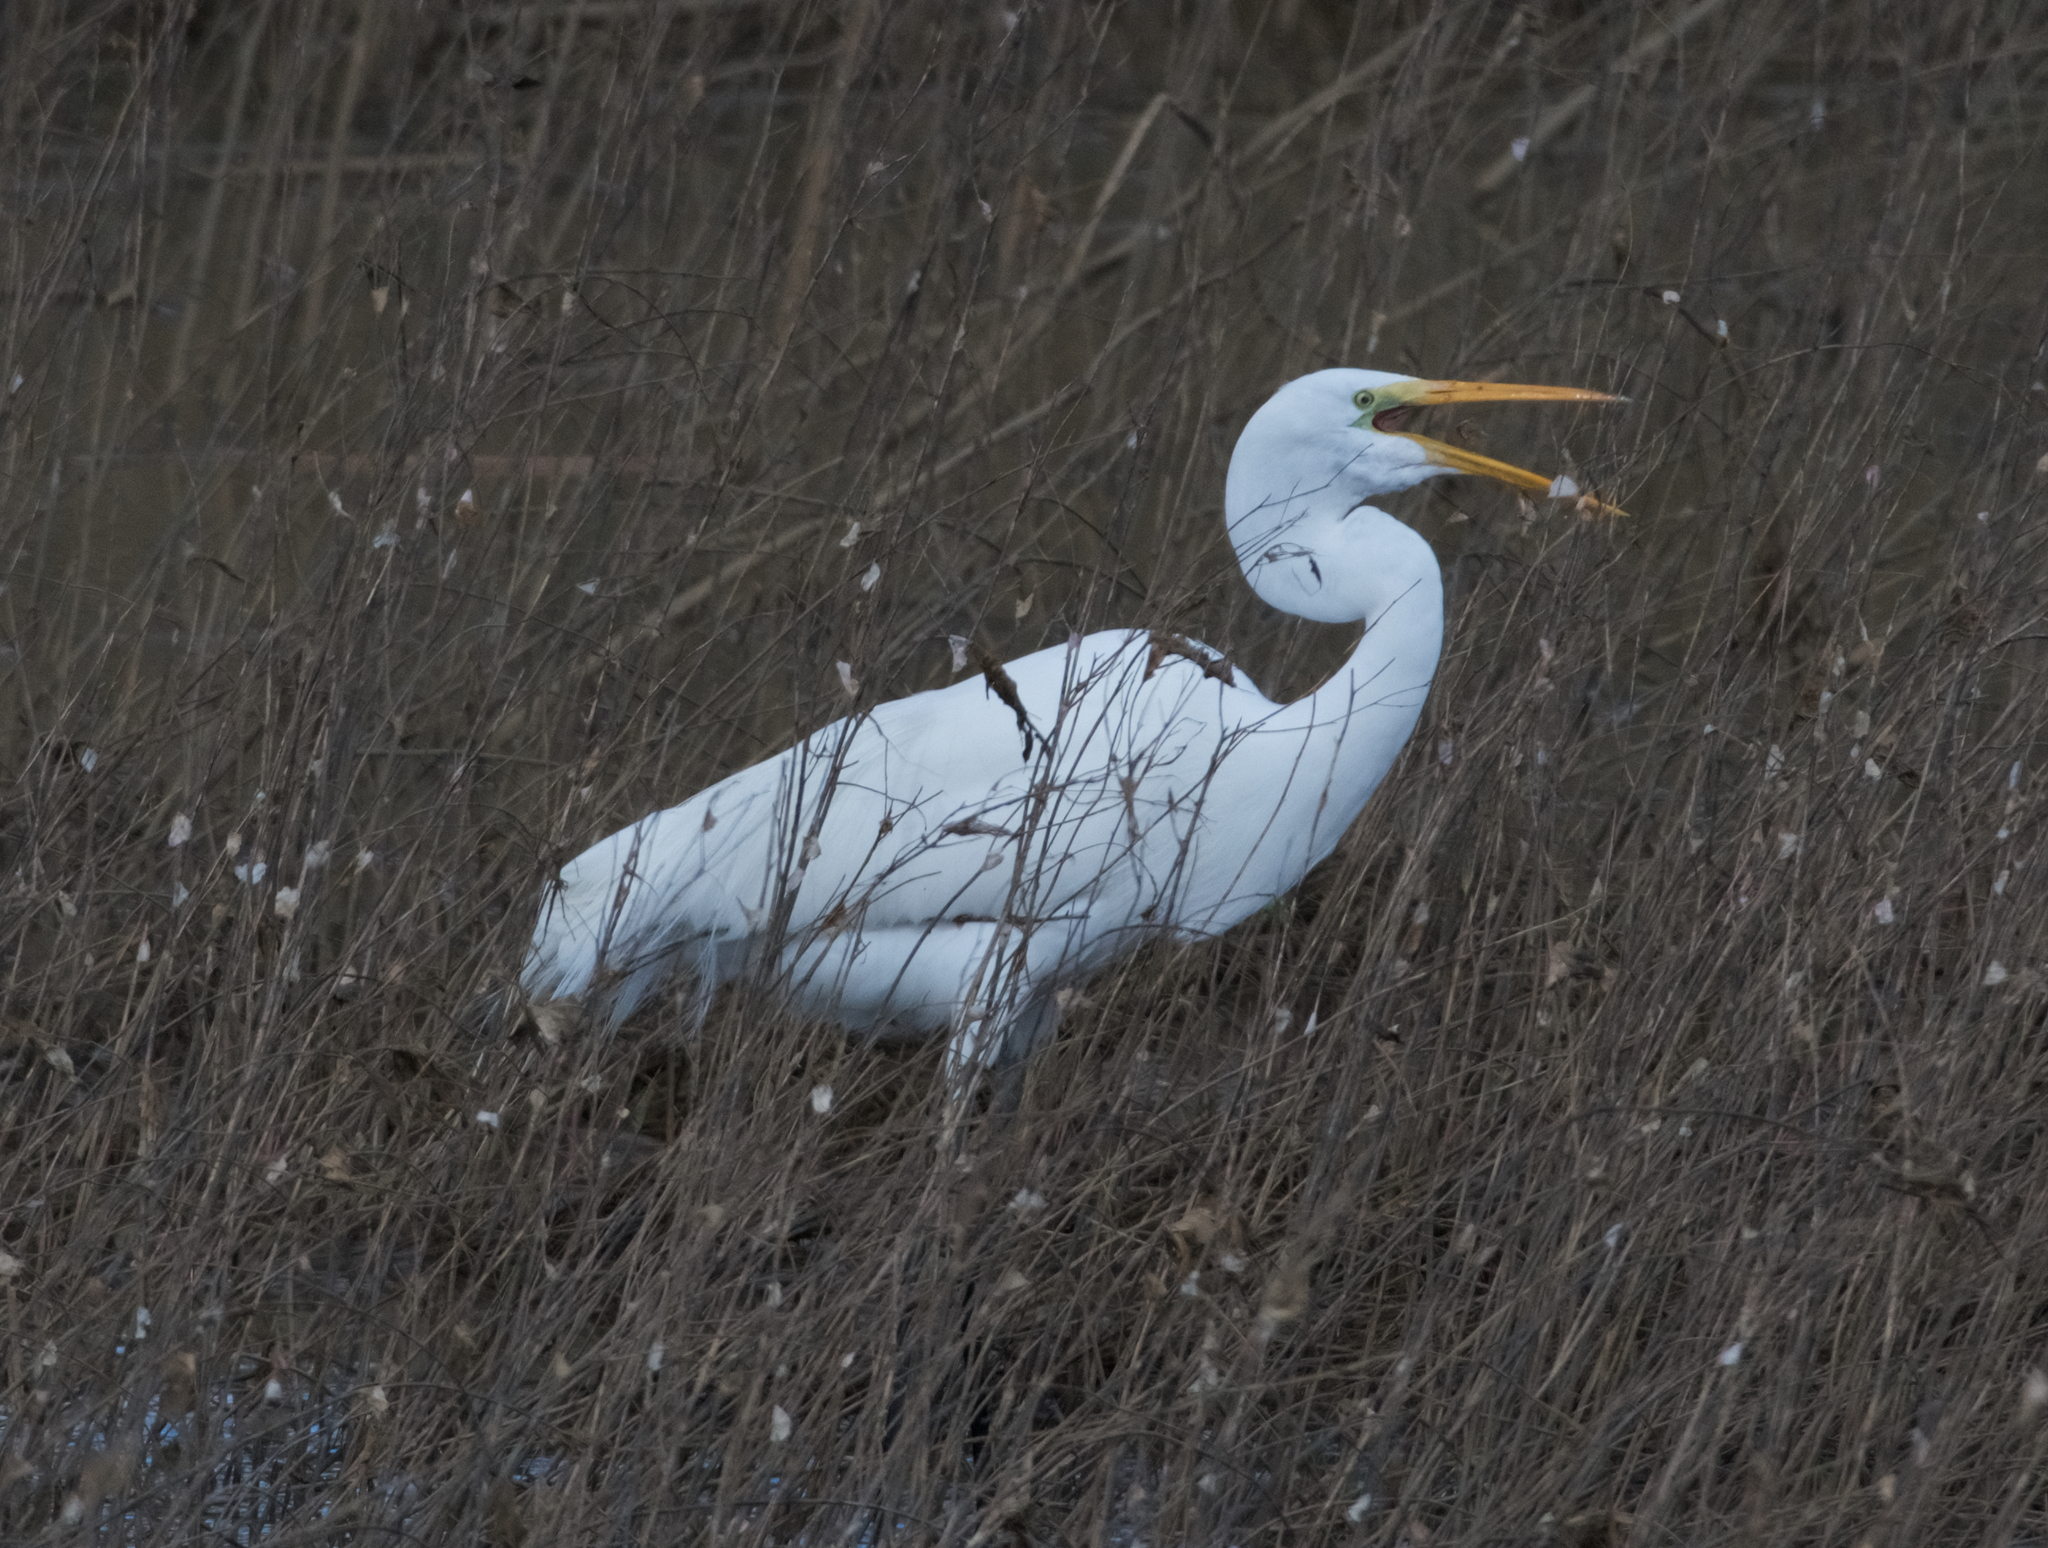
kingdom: Animalia
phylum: Chordata
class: Aves
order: Pelecaniformes
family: Ardeidae
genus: Ardea
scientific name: Ardea alba
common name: Great egret
